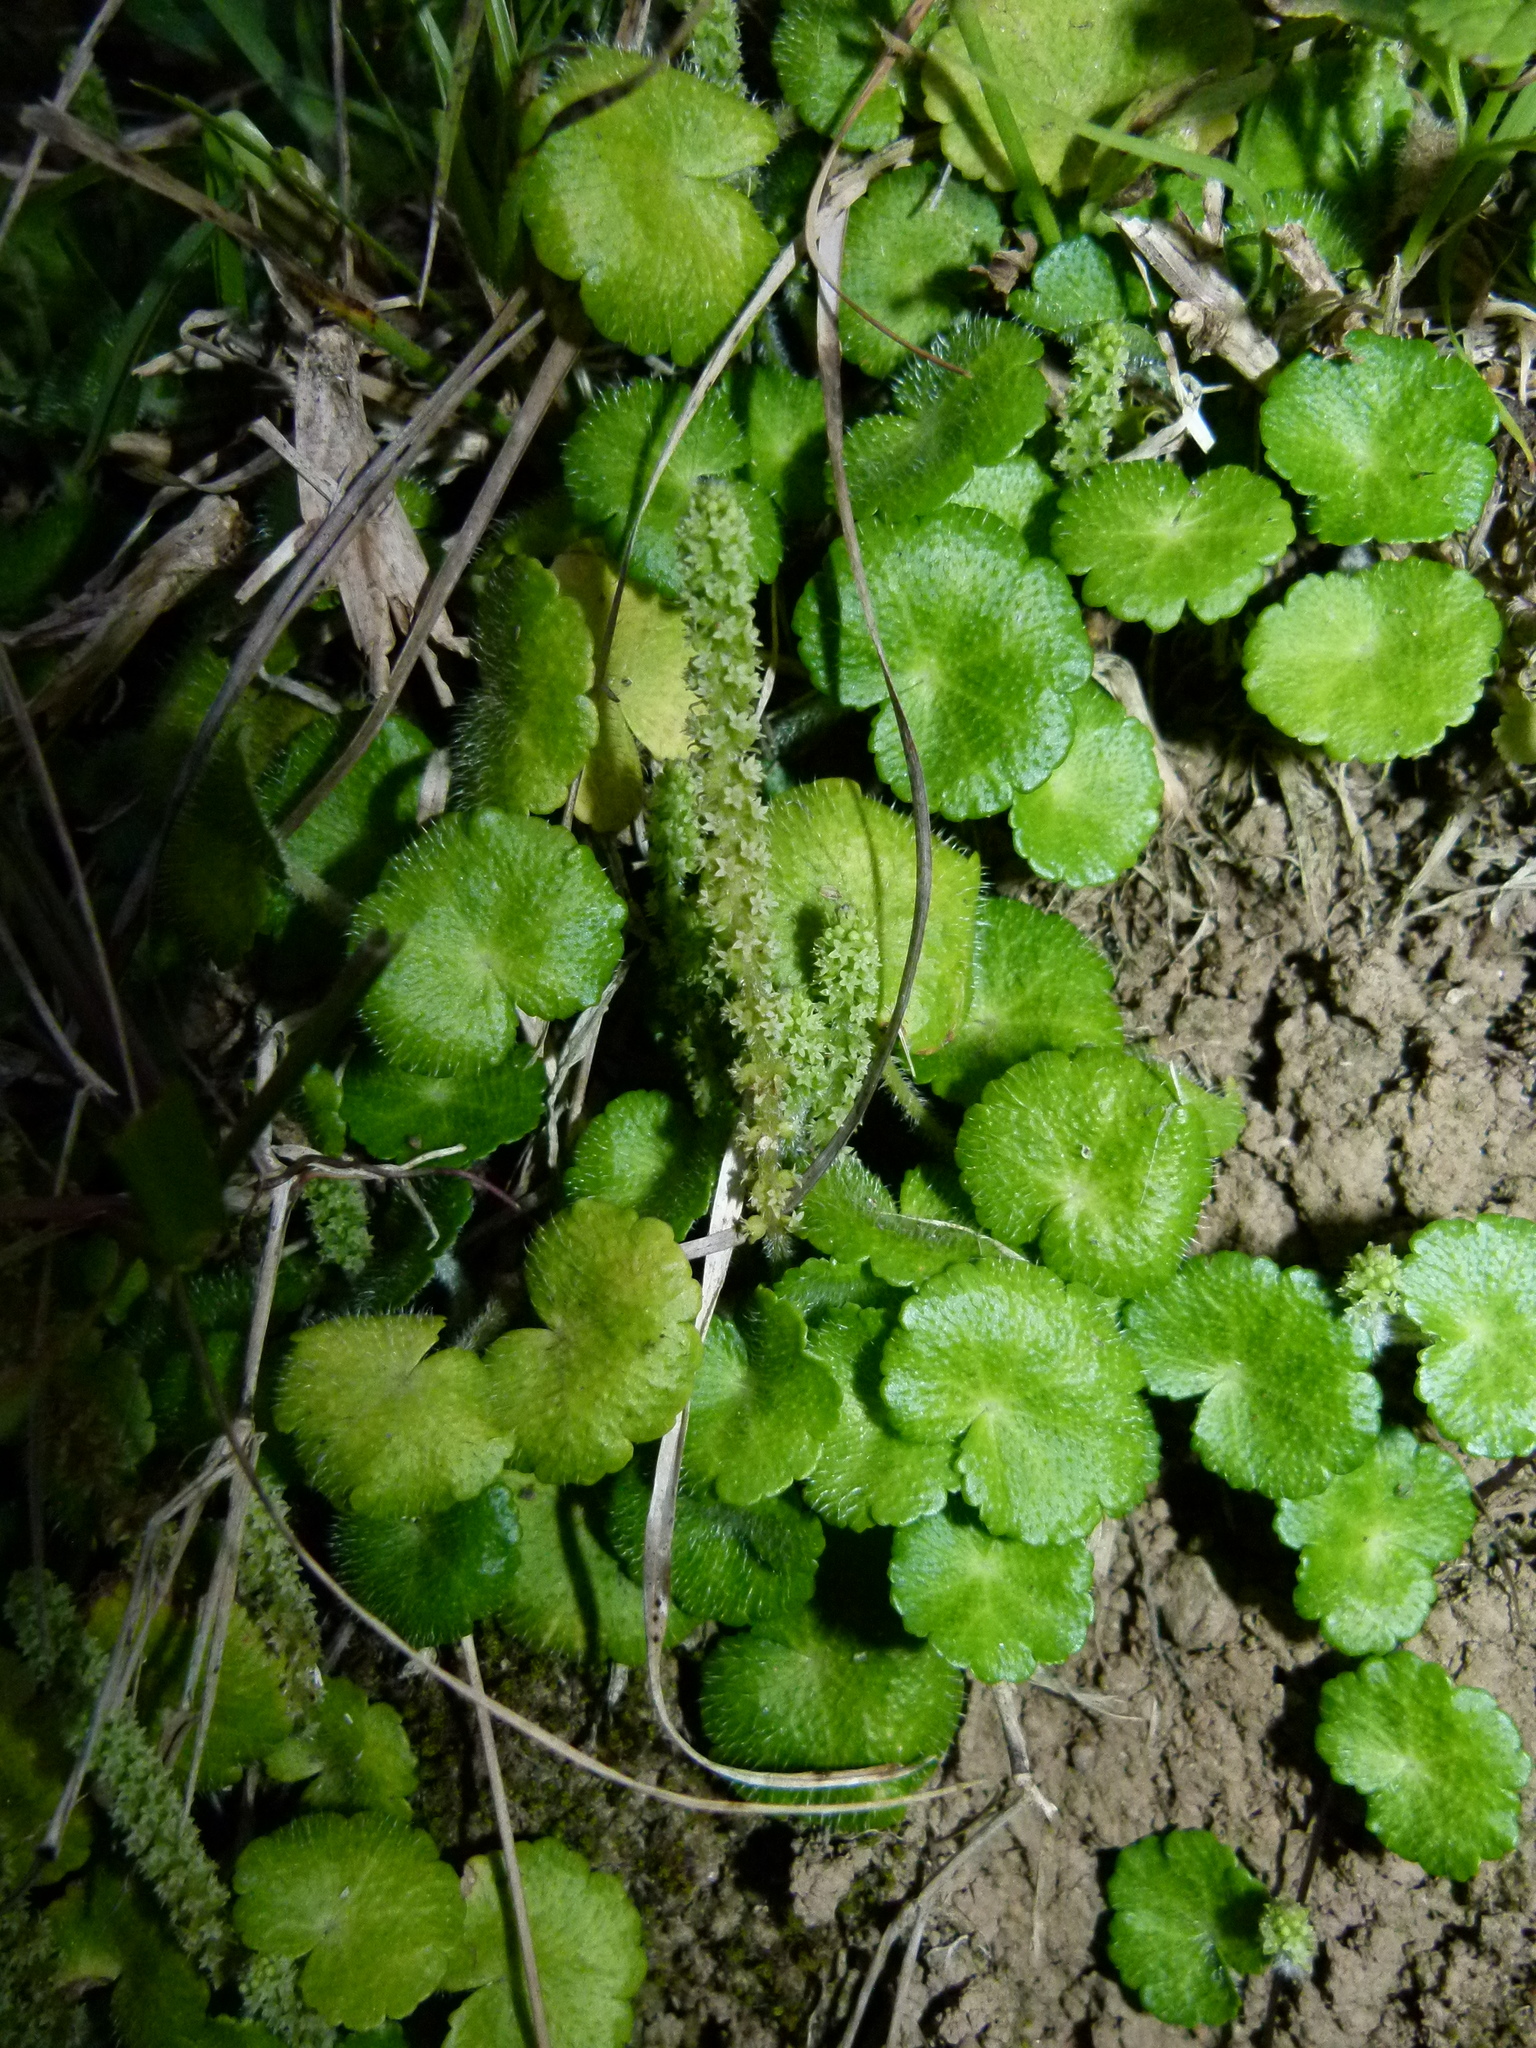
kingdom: Plantae
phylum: Tracheophyta
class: Magnoliopsida
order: Apiales
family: Araliaceae
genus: Hydrocotyle
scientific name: Hydrocotyle hirsuta
